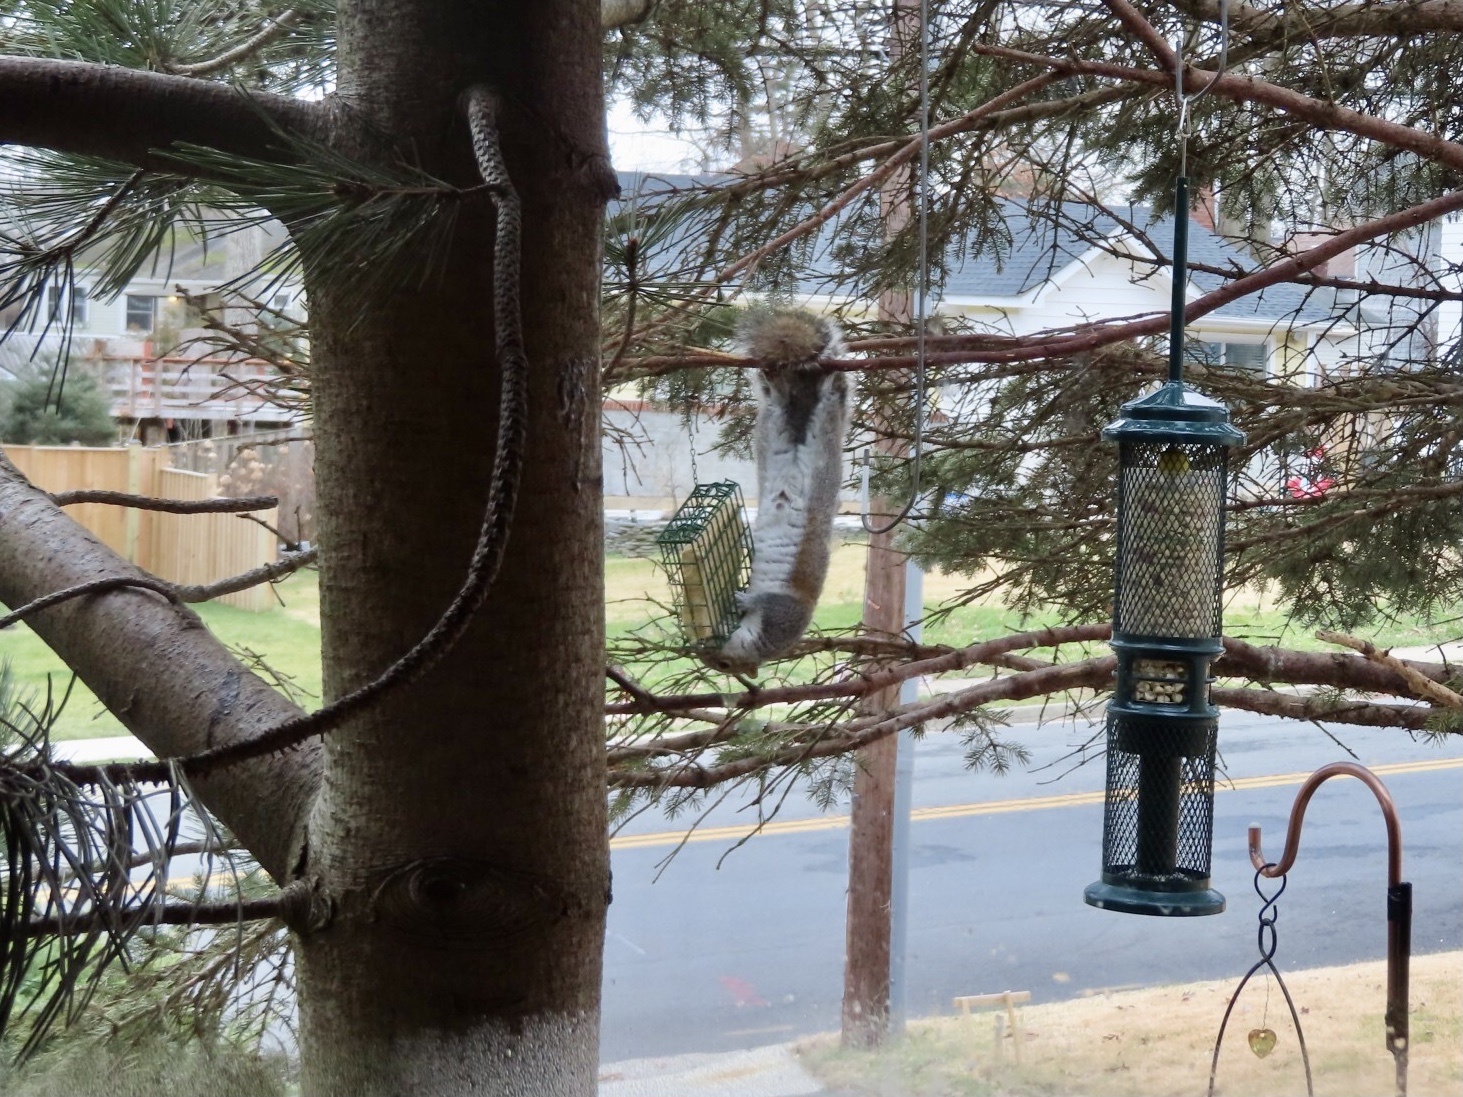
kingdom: Animalia
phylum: Chordata
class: Mammalia
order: Rodentia
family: Sciuridae
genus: Sciurus
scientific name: Sciurus carolinensis
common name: Eastern gray squirrel
